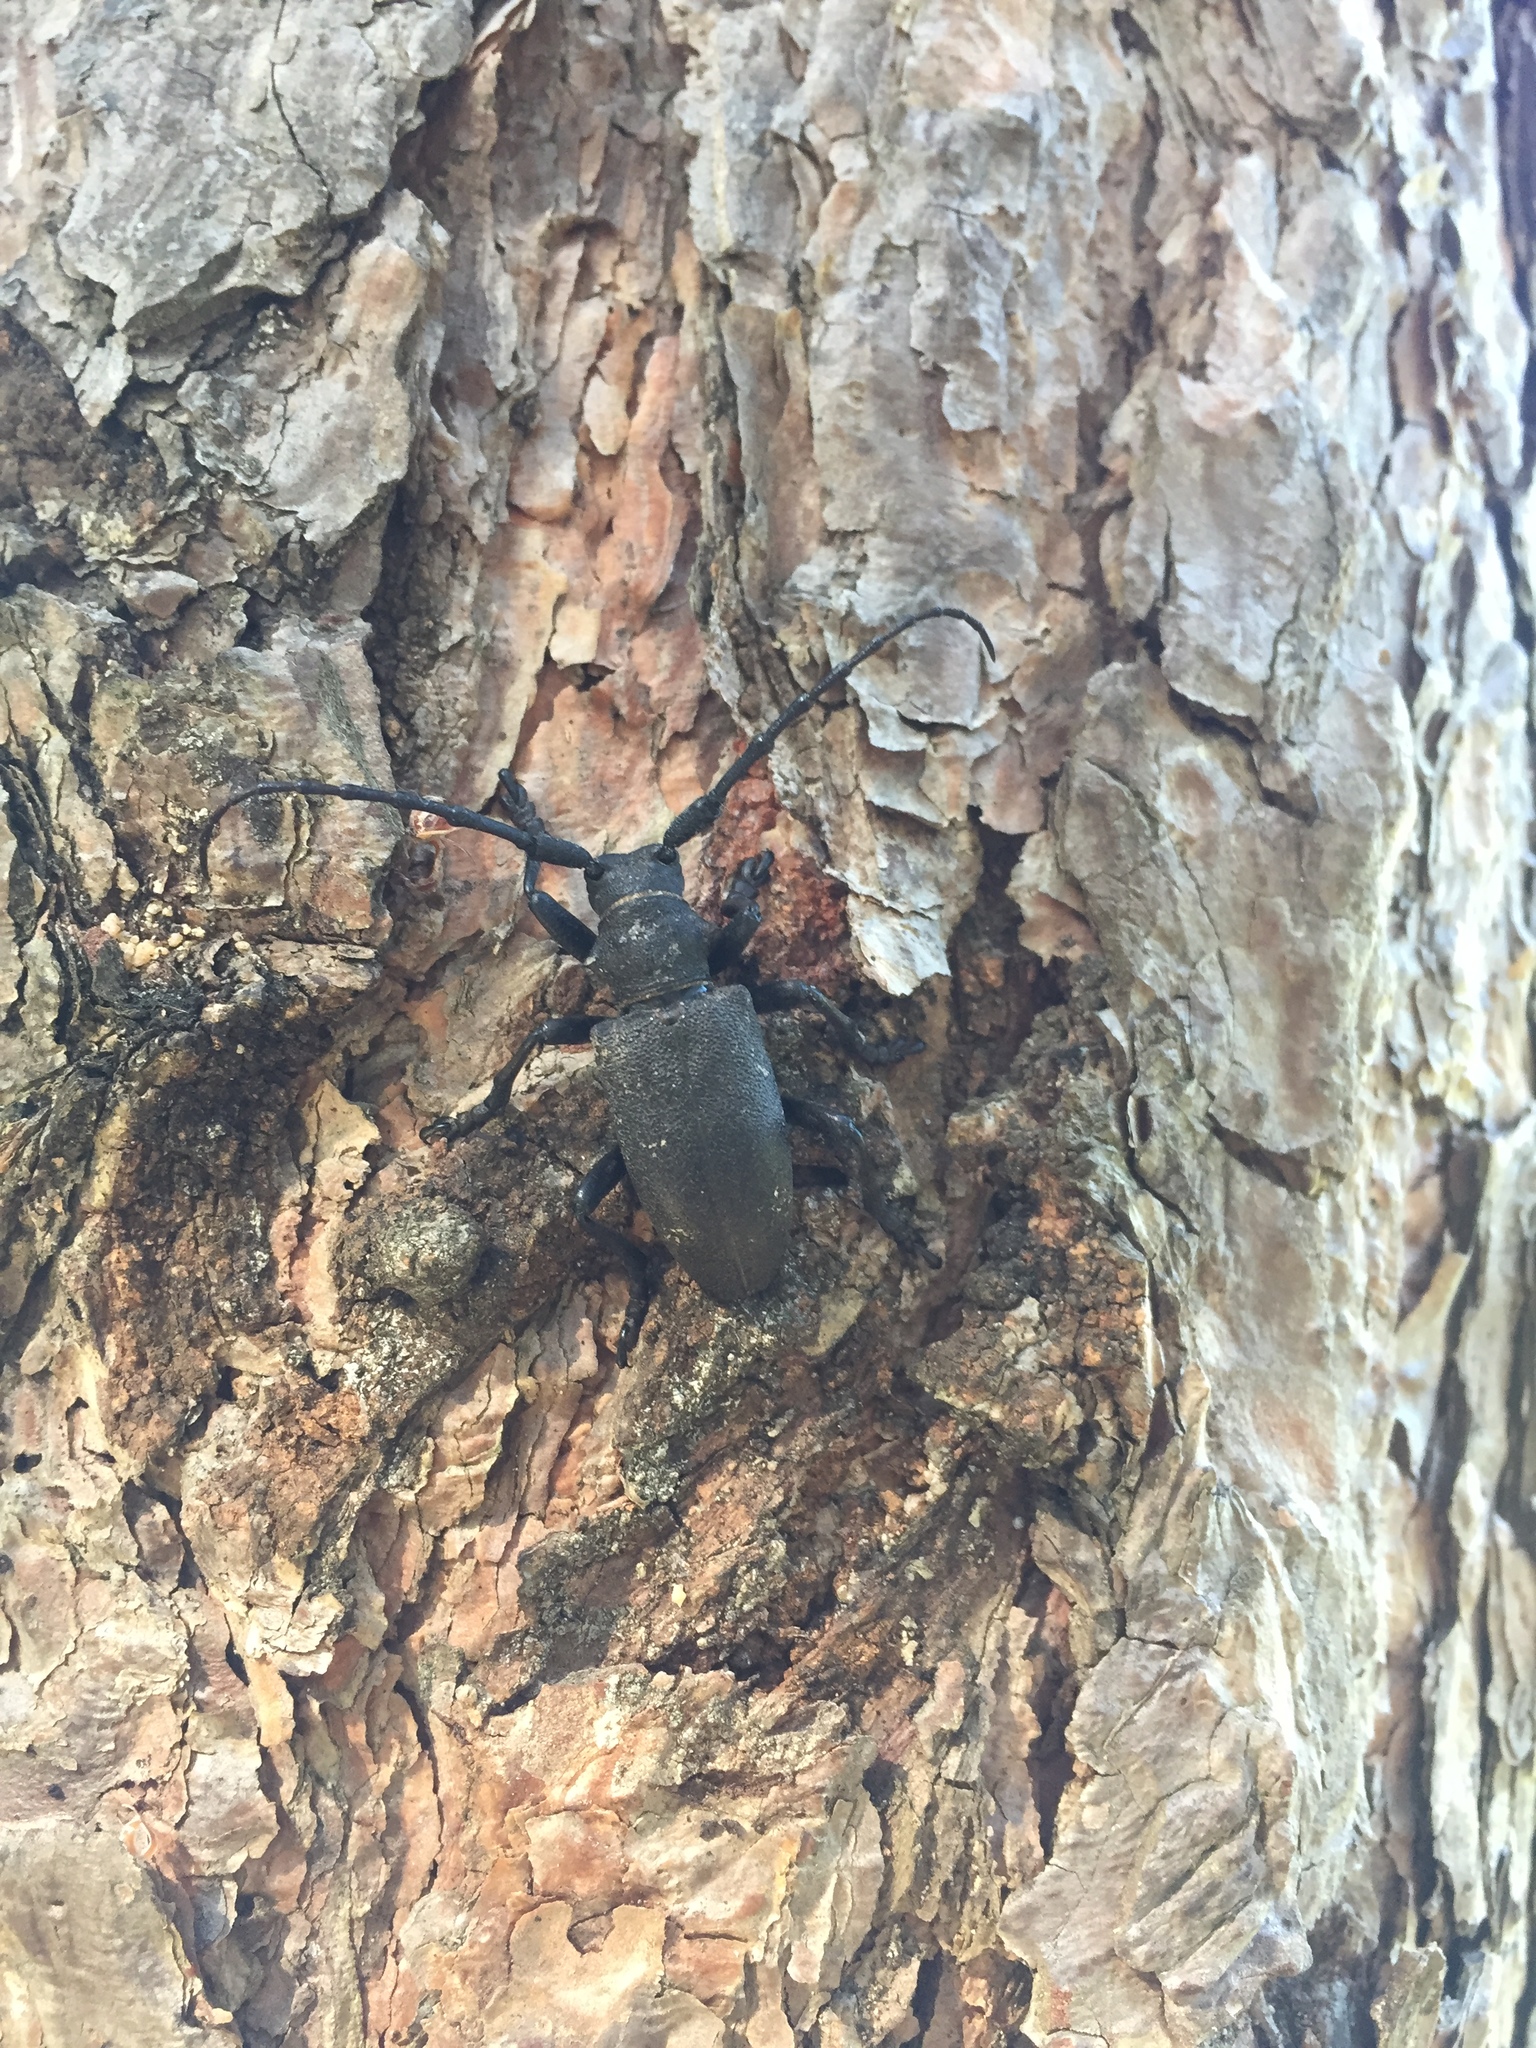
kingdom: Animalia
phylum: Arthropoda
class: Insecta
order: Coleoptera
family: Cerambycidae
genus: Lamia
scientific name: Lamia textor
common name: Weaver beetle
